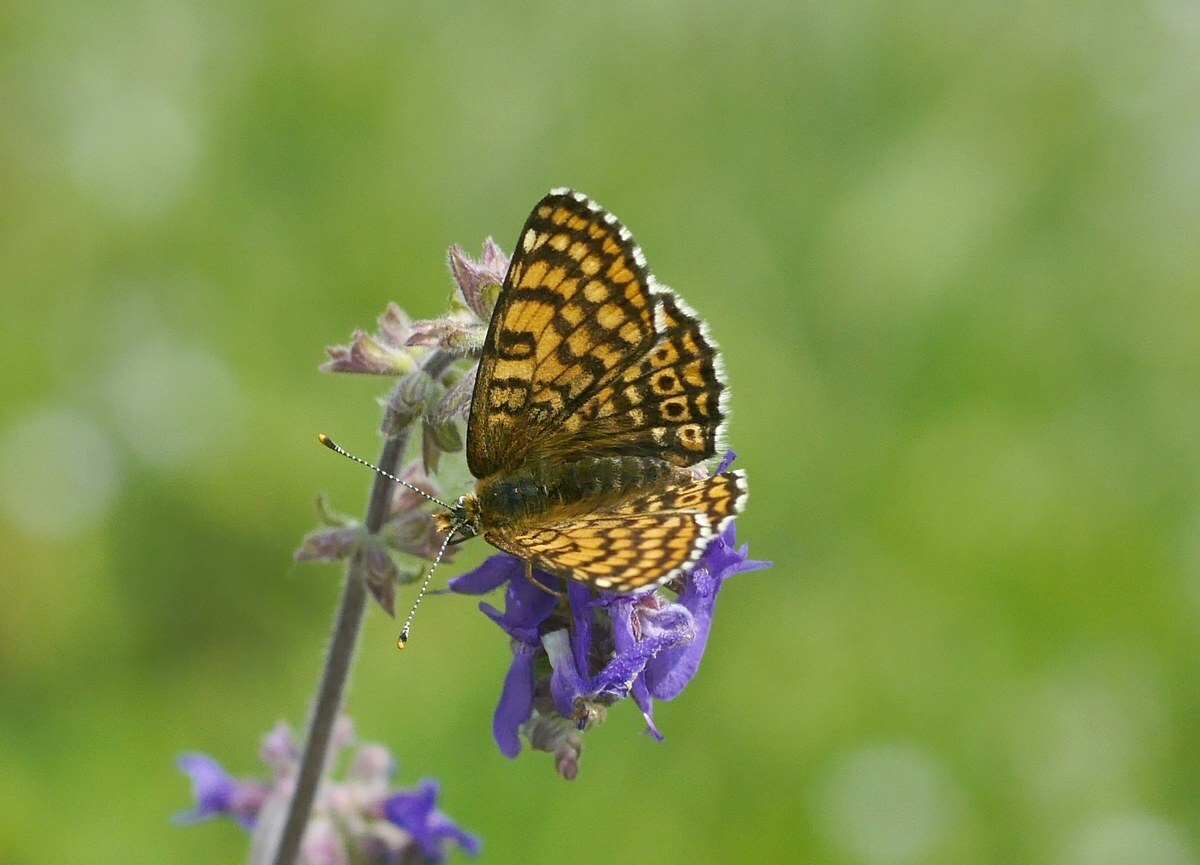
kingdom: Animalia
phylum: Arthropoda
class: Insecta
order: Lepidoptera
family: Nymphalidae
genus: Melitaea
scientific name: Melitaea cinxia
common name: Glanville fritillary
